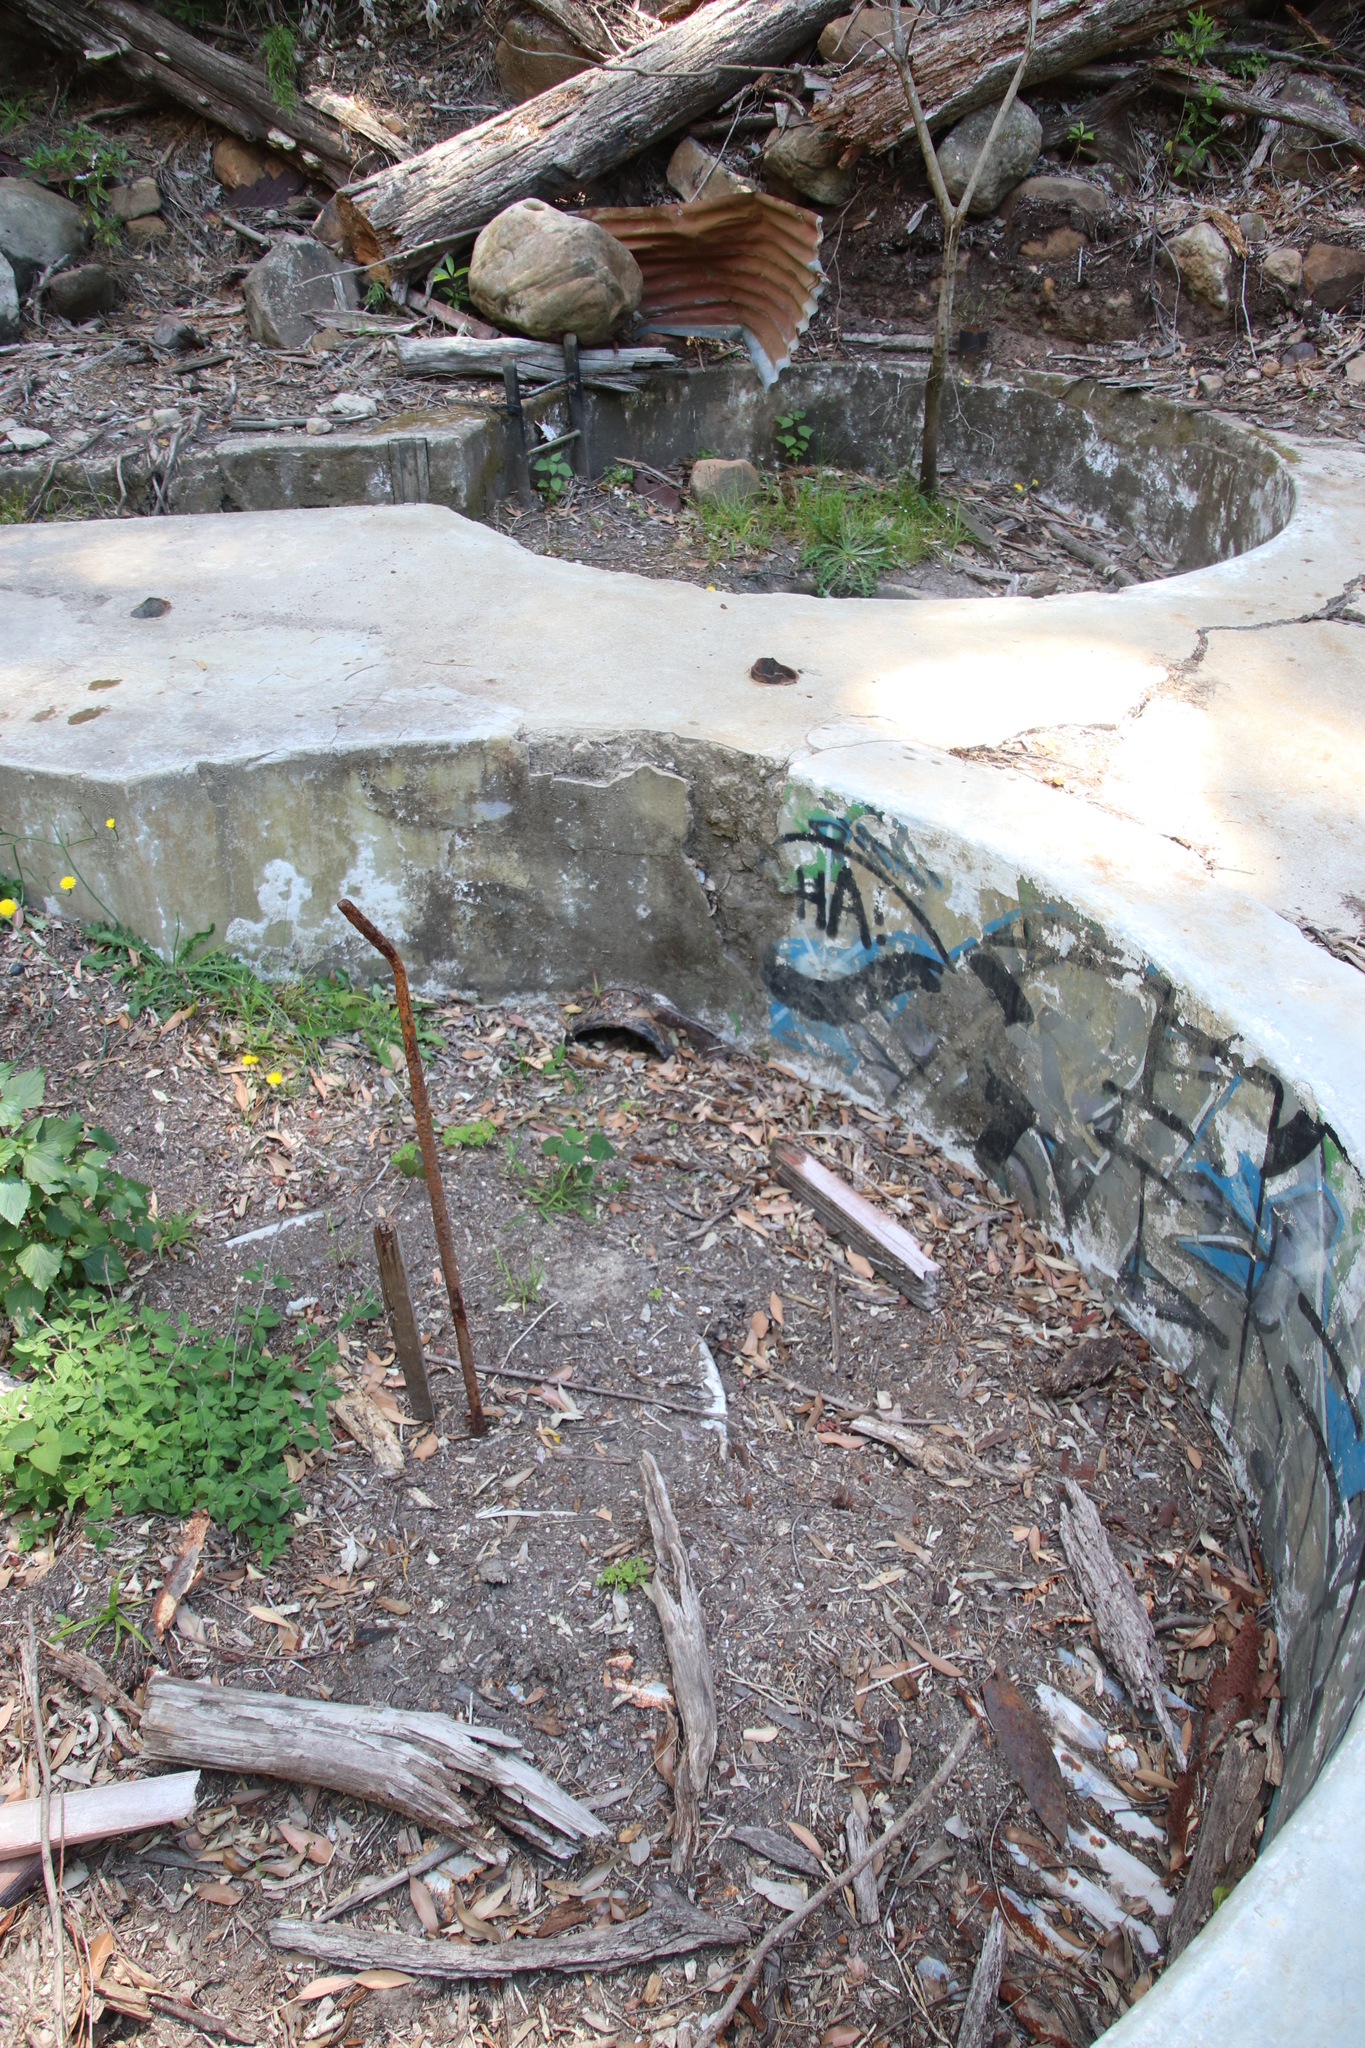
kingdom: Plantae
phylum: Tracheophyta
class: Magnoliopsida
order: Asterales
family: Asteraceae
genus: Hypochaeris
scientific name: Hypochaeris radicata
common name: Flatweed
